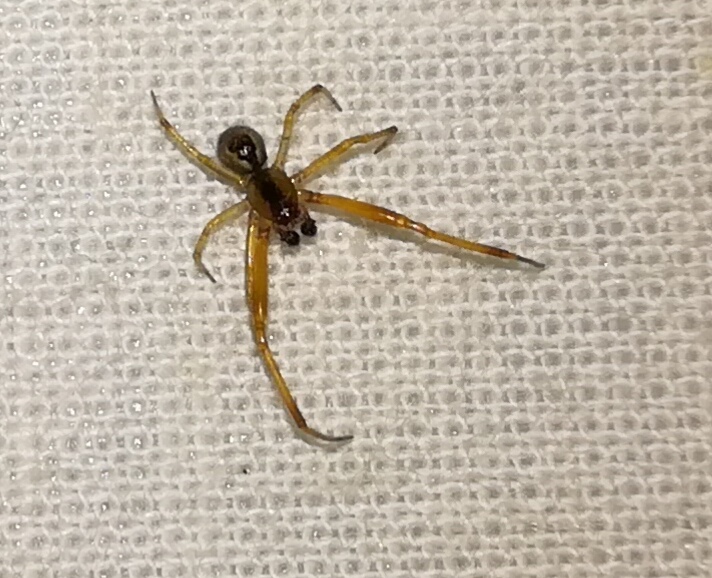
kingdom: Animalia
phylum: Arthropoda
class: Arachnida
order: Araneae
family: Theridiidae
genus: Anelosimus
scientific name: Anelosimus vittatus
